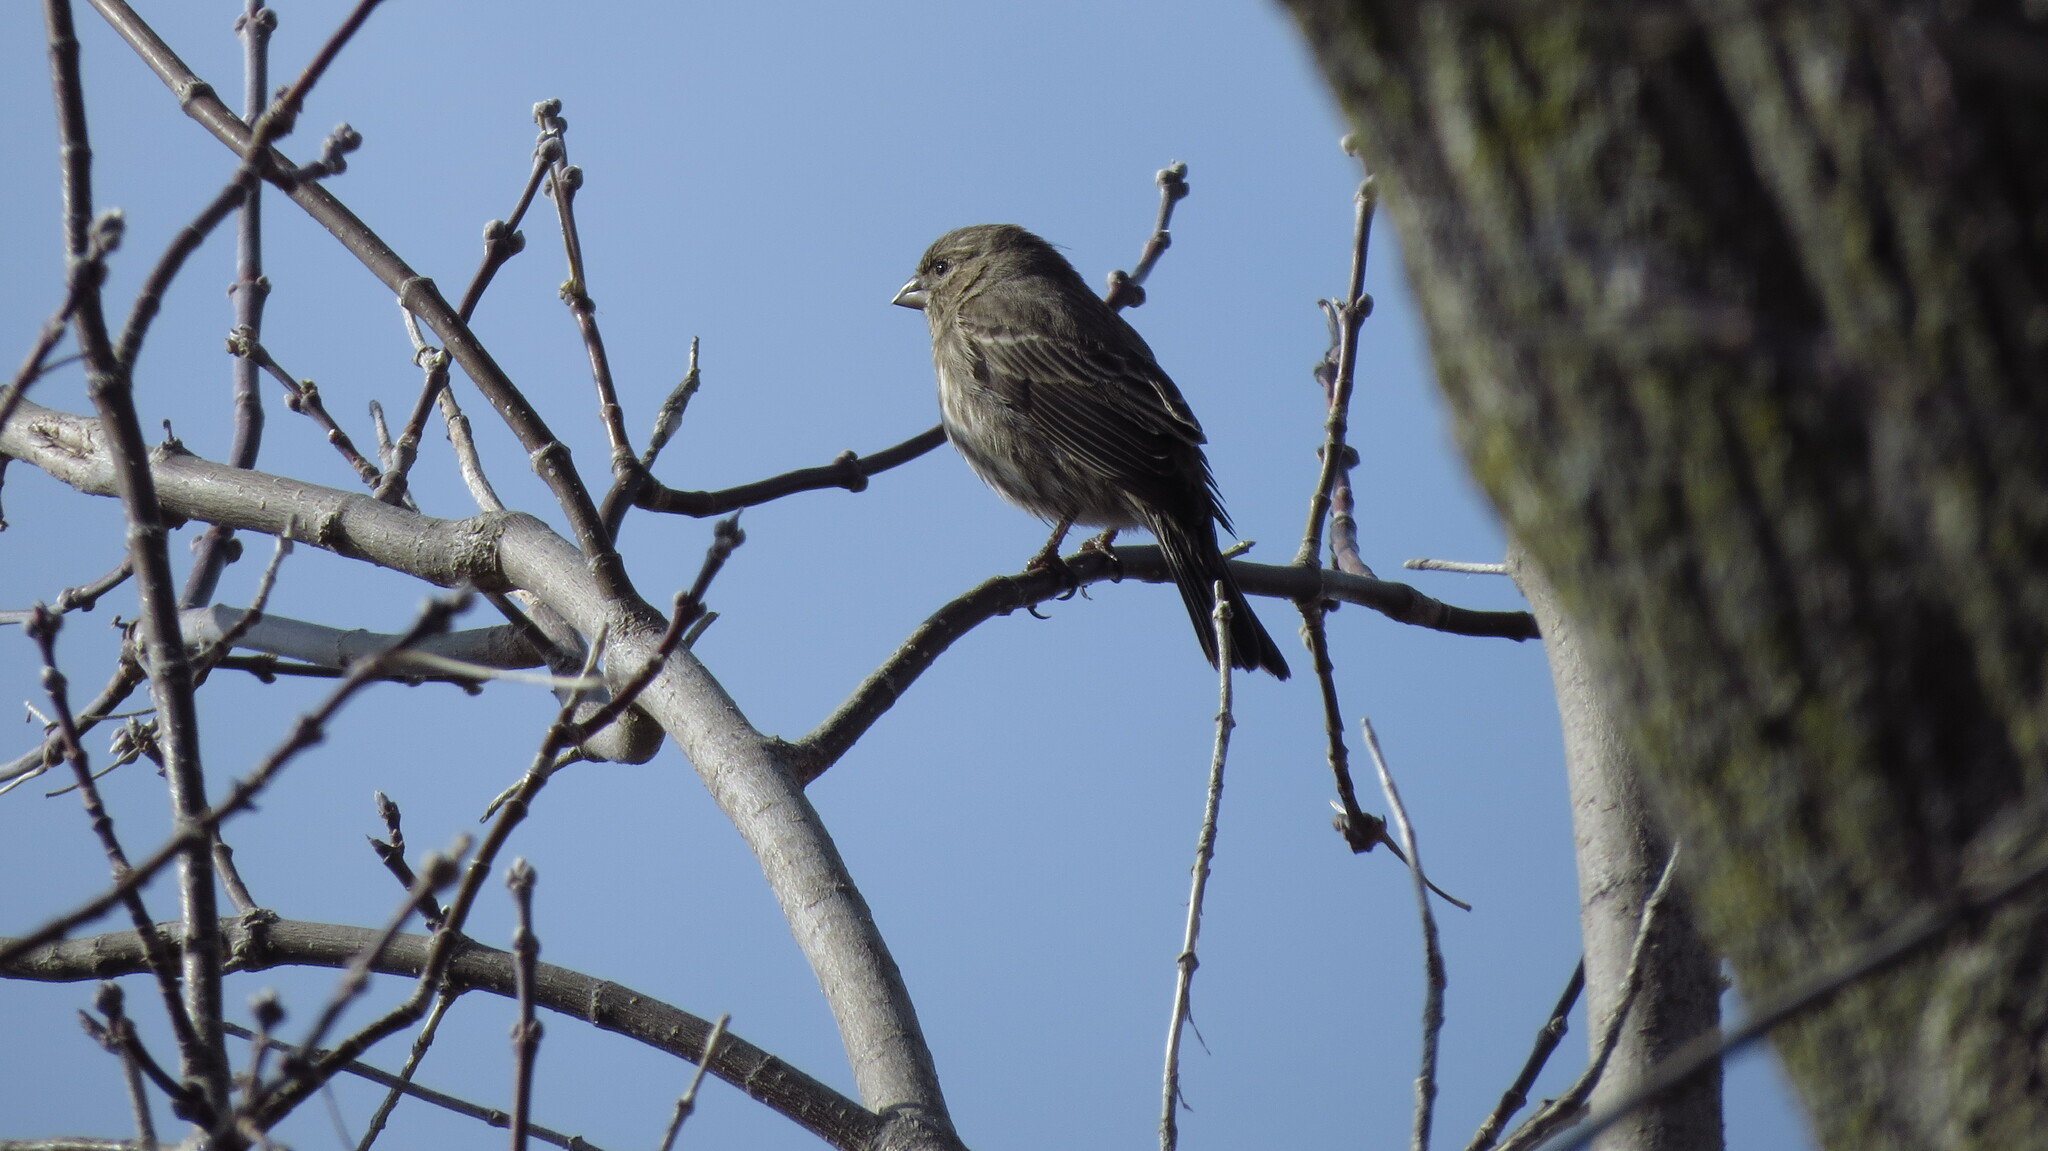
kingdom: Animalia
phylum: Chordata
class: Aves
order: Passeriformes
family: Fringillidae
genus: Haemorhous
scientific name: Haemorhous mexicanus
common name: House finch
